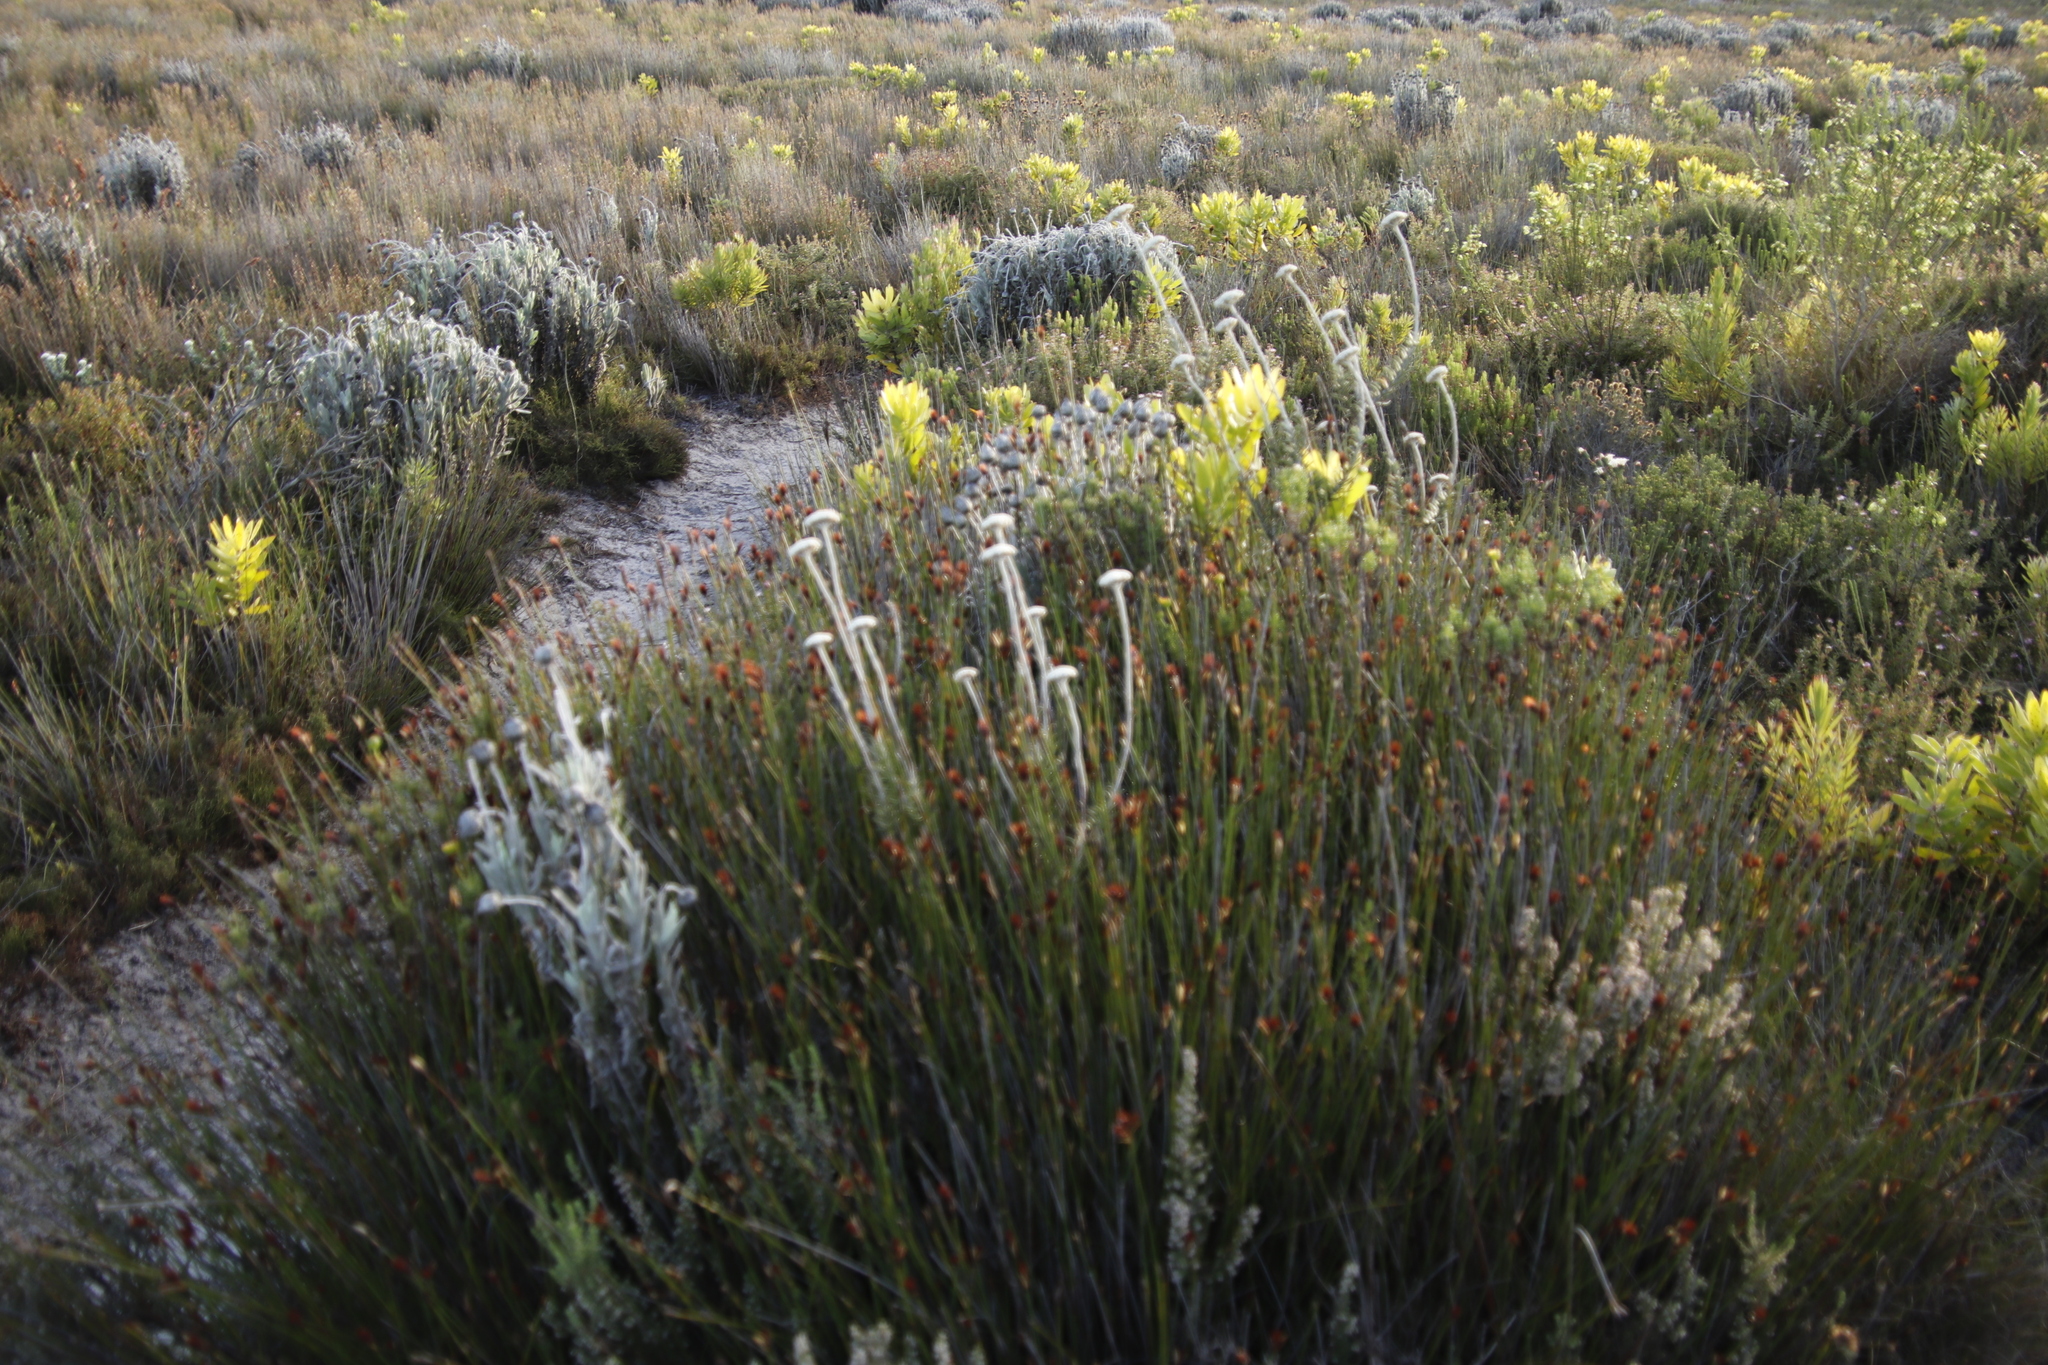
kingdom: Plantae
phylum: Tracheophyta
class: Magnoliopsida
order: Asterales
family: Asteraceae
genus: Syncarpha
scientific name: Syncarpha vestita
